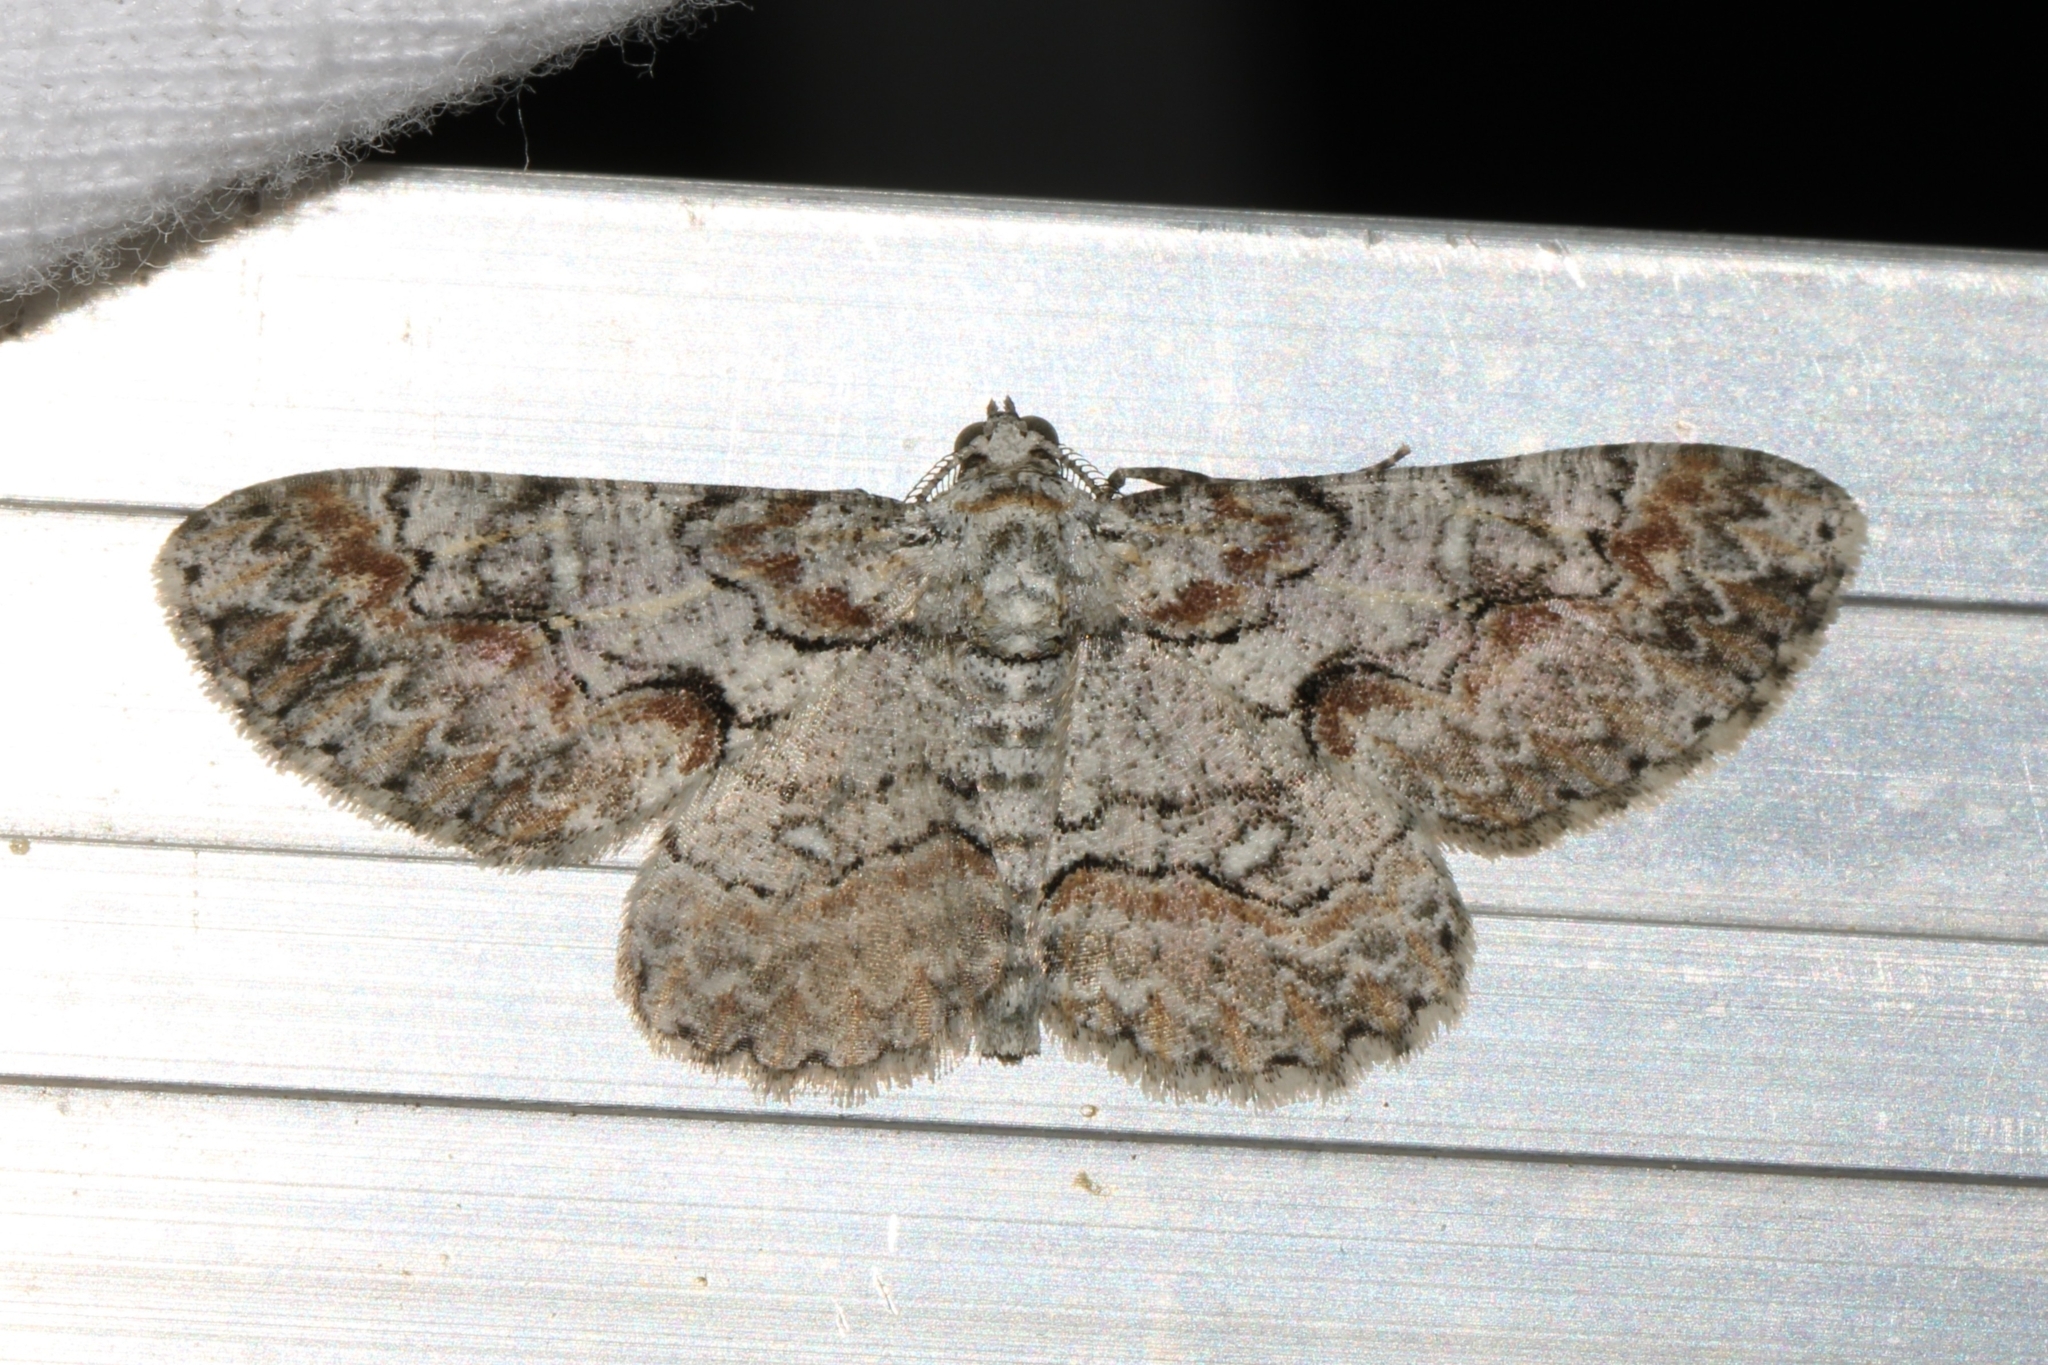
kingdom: Animalia
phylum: Arthropoda
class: Insecta
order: Lepidoptera
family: Geometridae
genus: Iridopsis
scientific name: Iridopsis defectaria
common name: Brown-shaded gray
